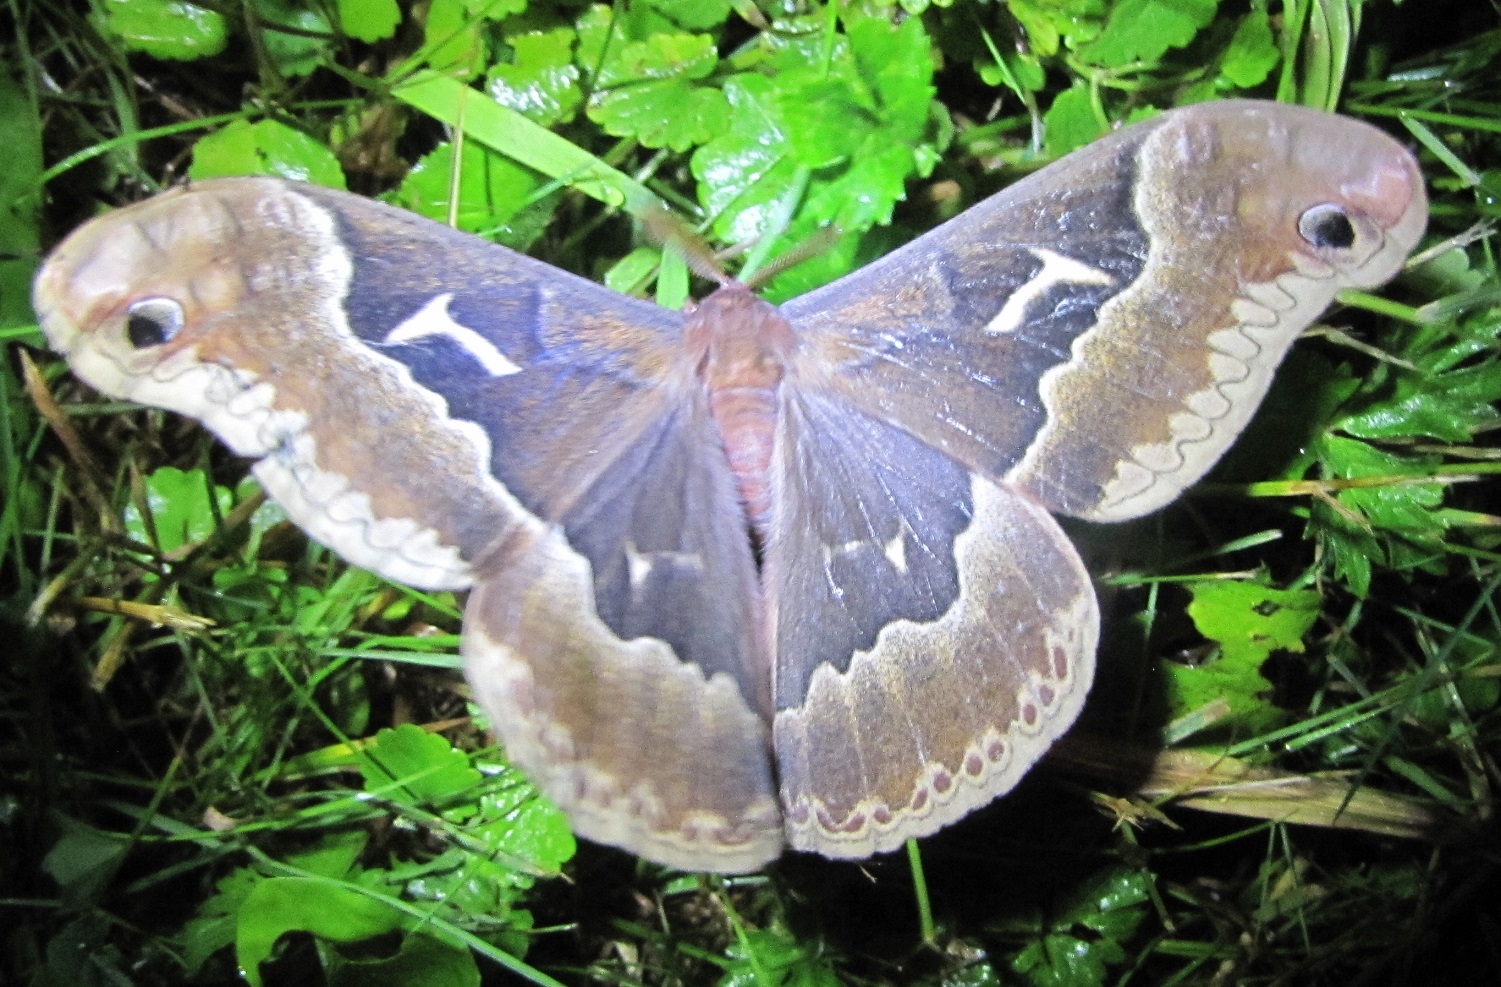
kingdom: Animalia
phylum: Arthropoda
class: Insecta
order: Lepidoptera
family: Saturniidae
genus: Callosamia
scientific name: Callosamia angulifera
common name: Tulip tree silkmoth
